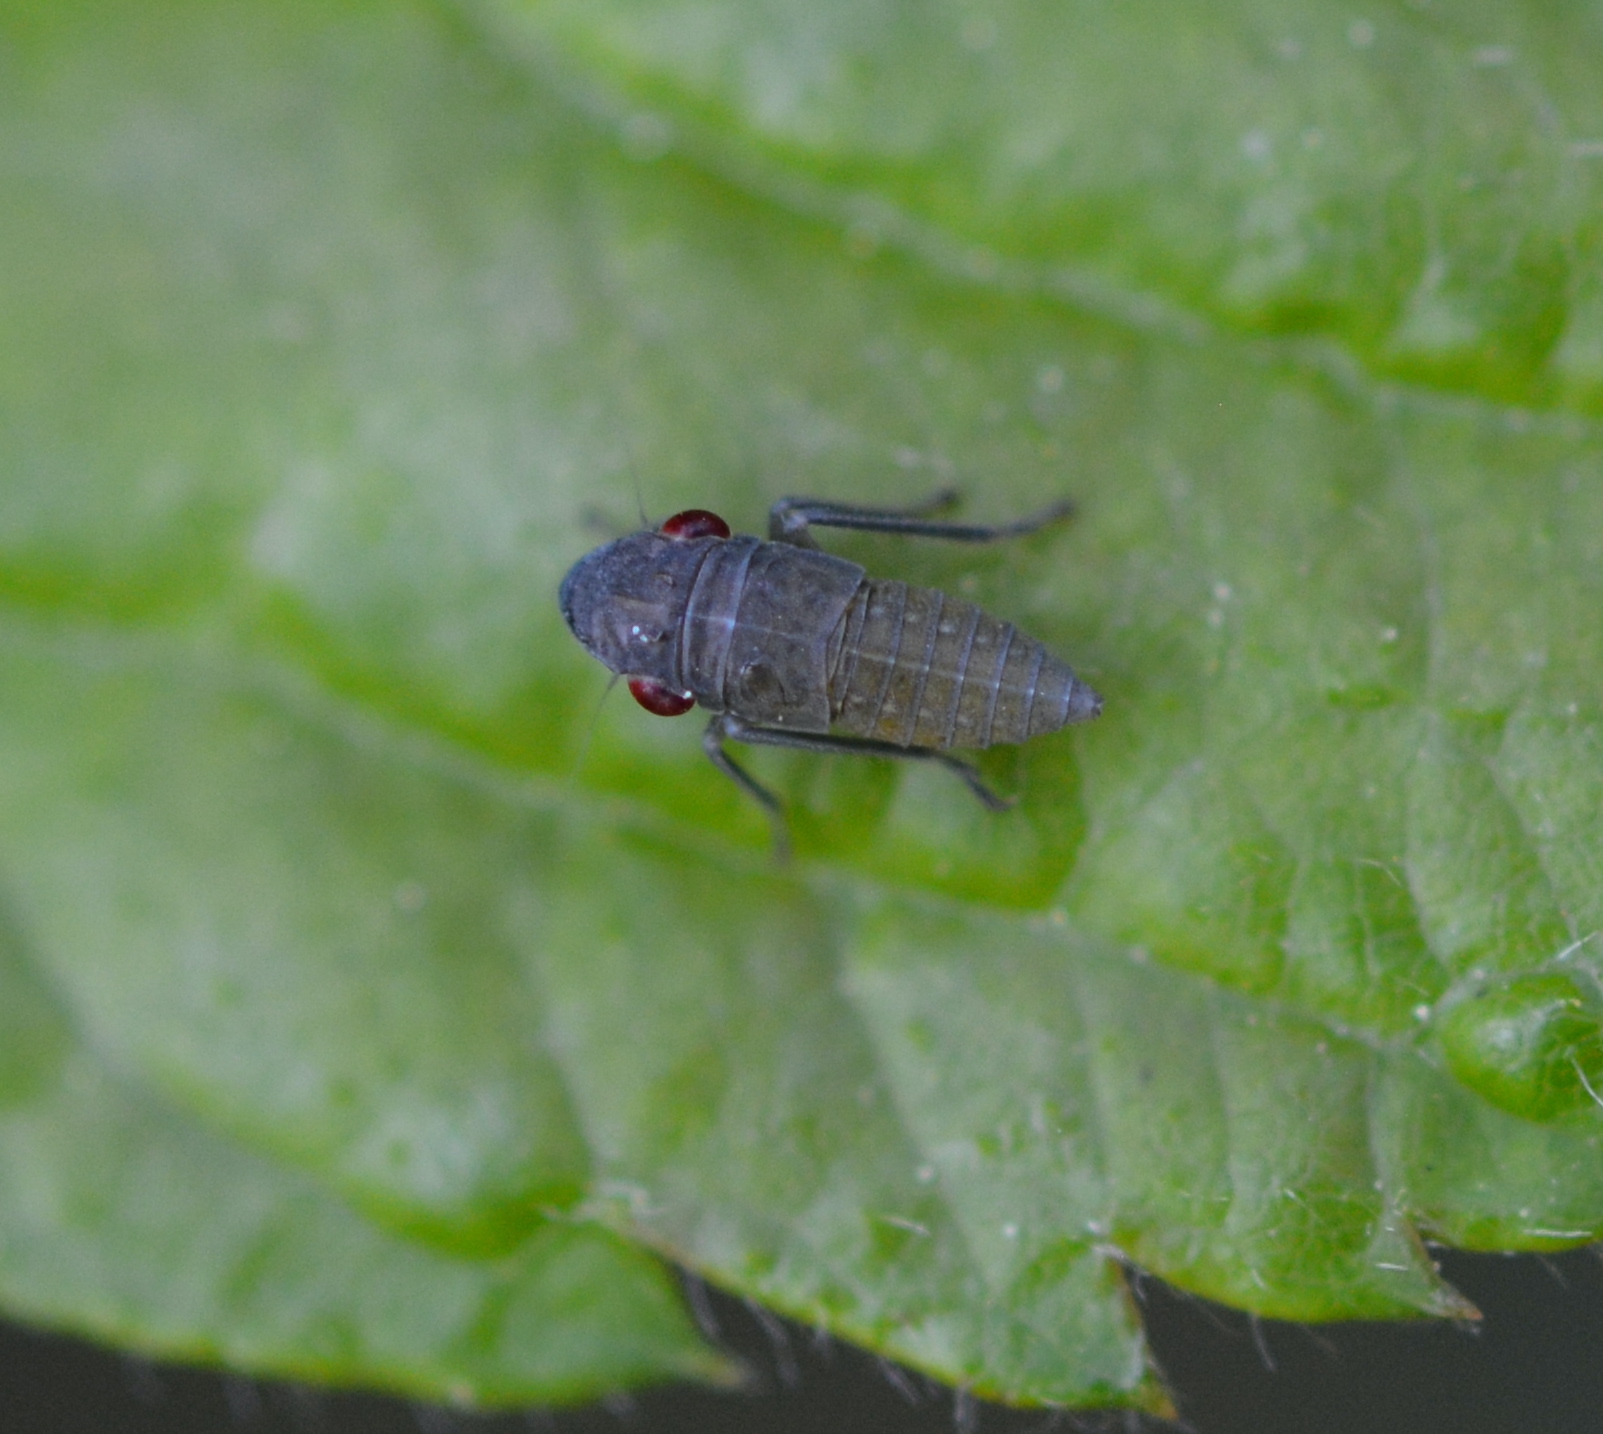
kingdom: Animalia
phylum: Arthropoda
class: Insecta
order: Hemiptera
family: Cicadellidae
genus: Homalodisca
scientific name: Homalodisca vitripennis
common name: Glassy-winged sharpshooter
